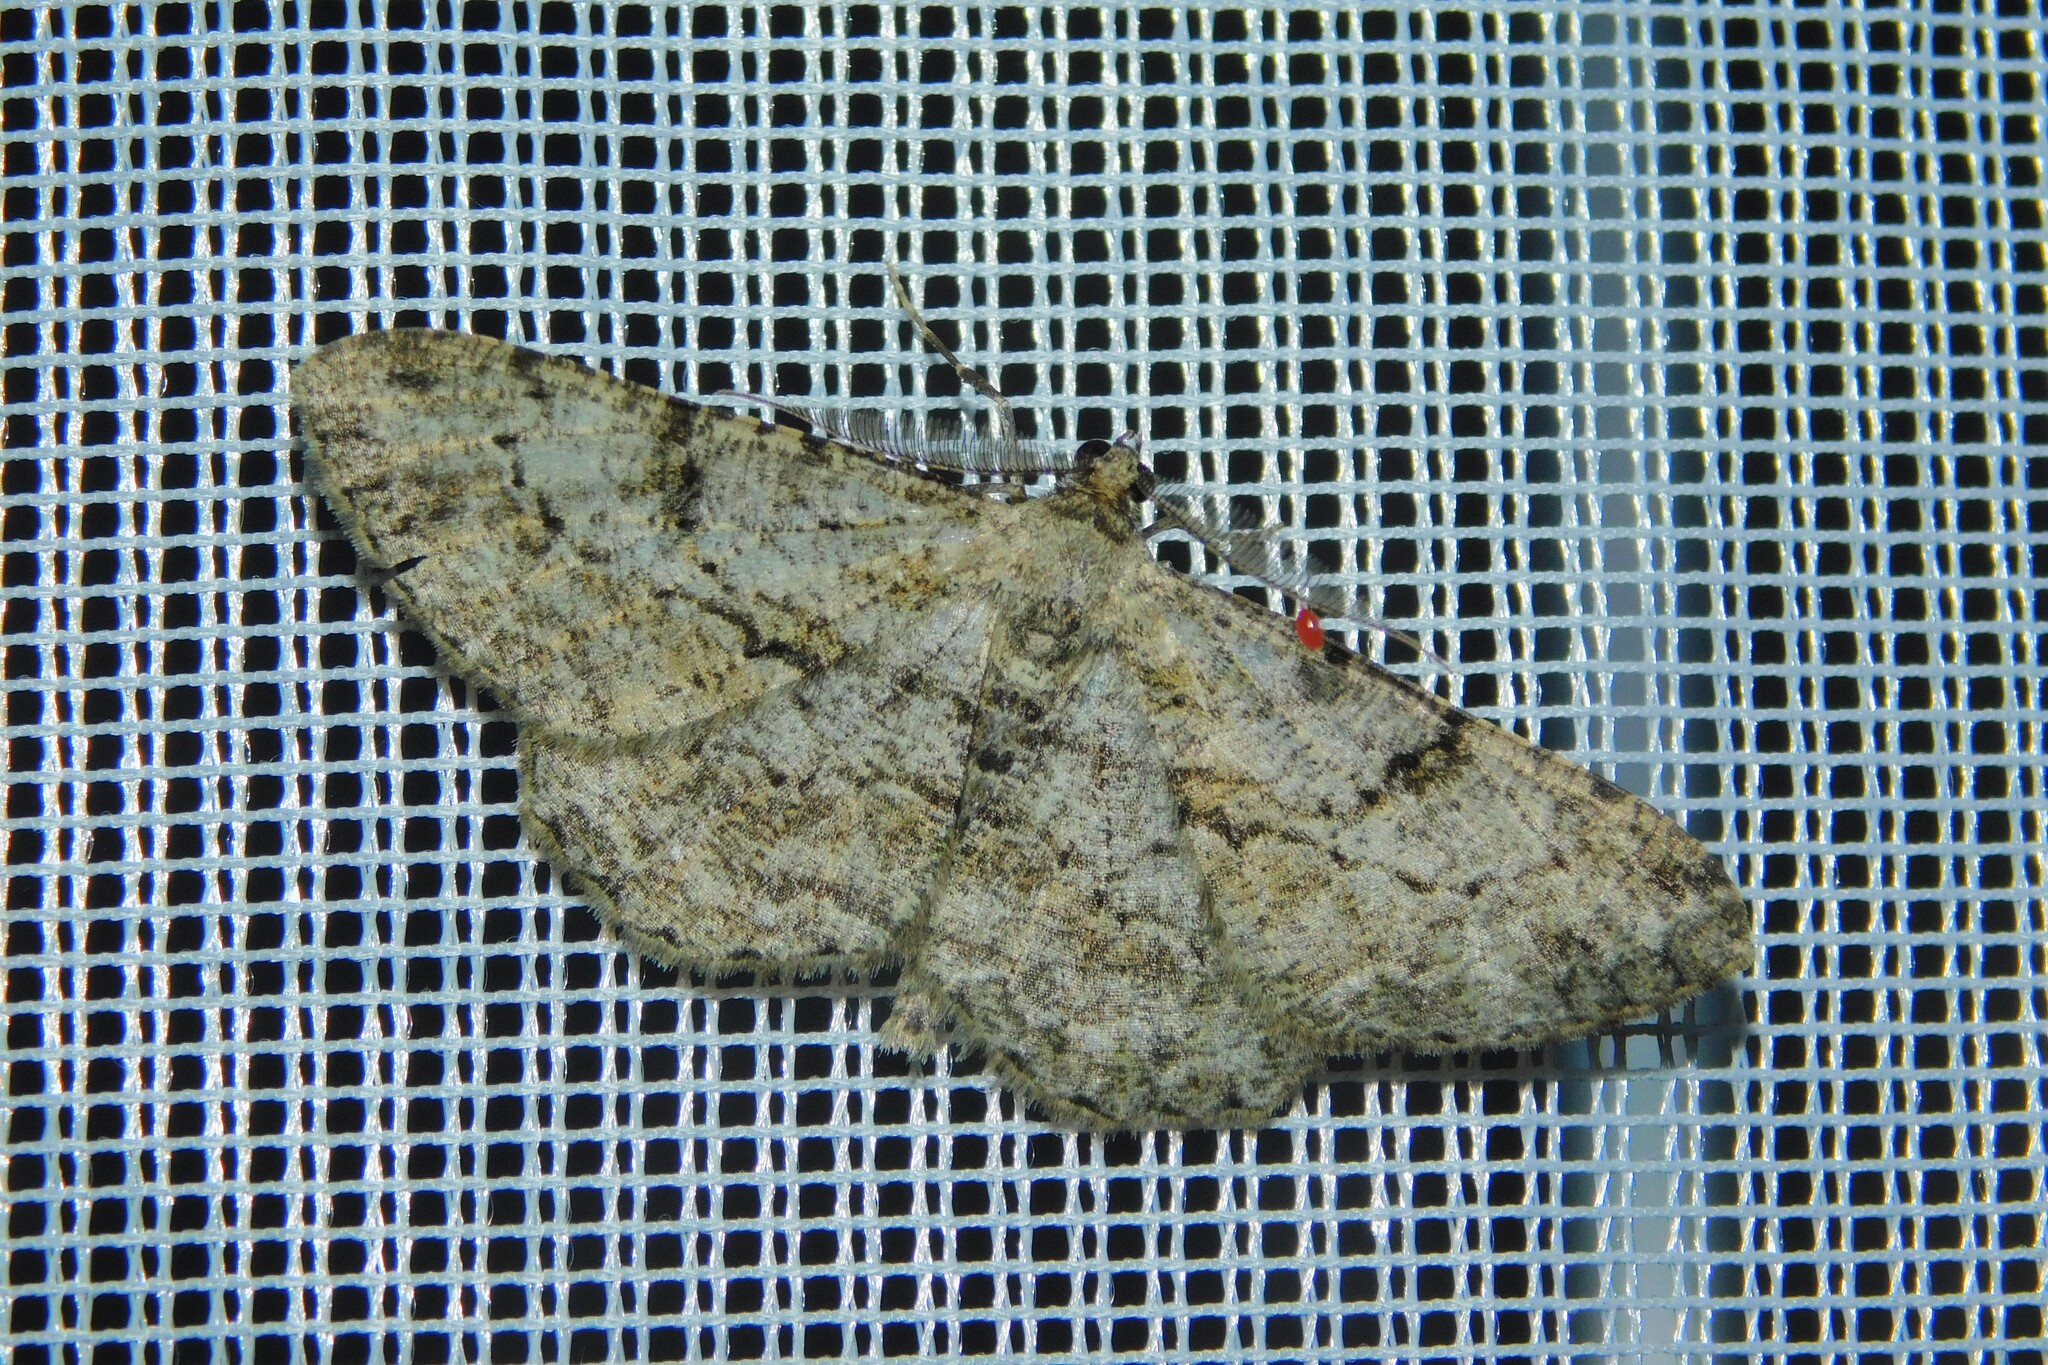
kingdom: Animalia
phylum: Arthropoda
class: Insecta
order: Lepidoptera
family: Geometridae
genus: Peribatodes
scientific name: Peribatodes rhomboidaria
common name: Willow beauty
